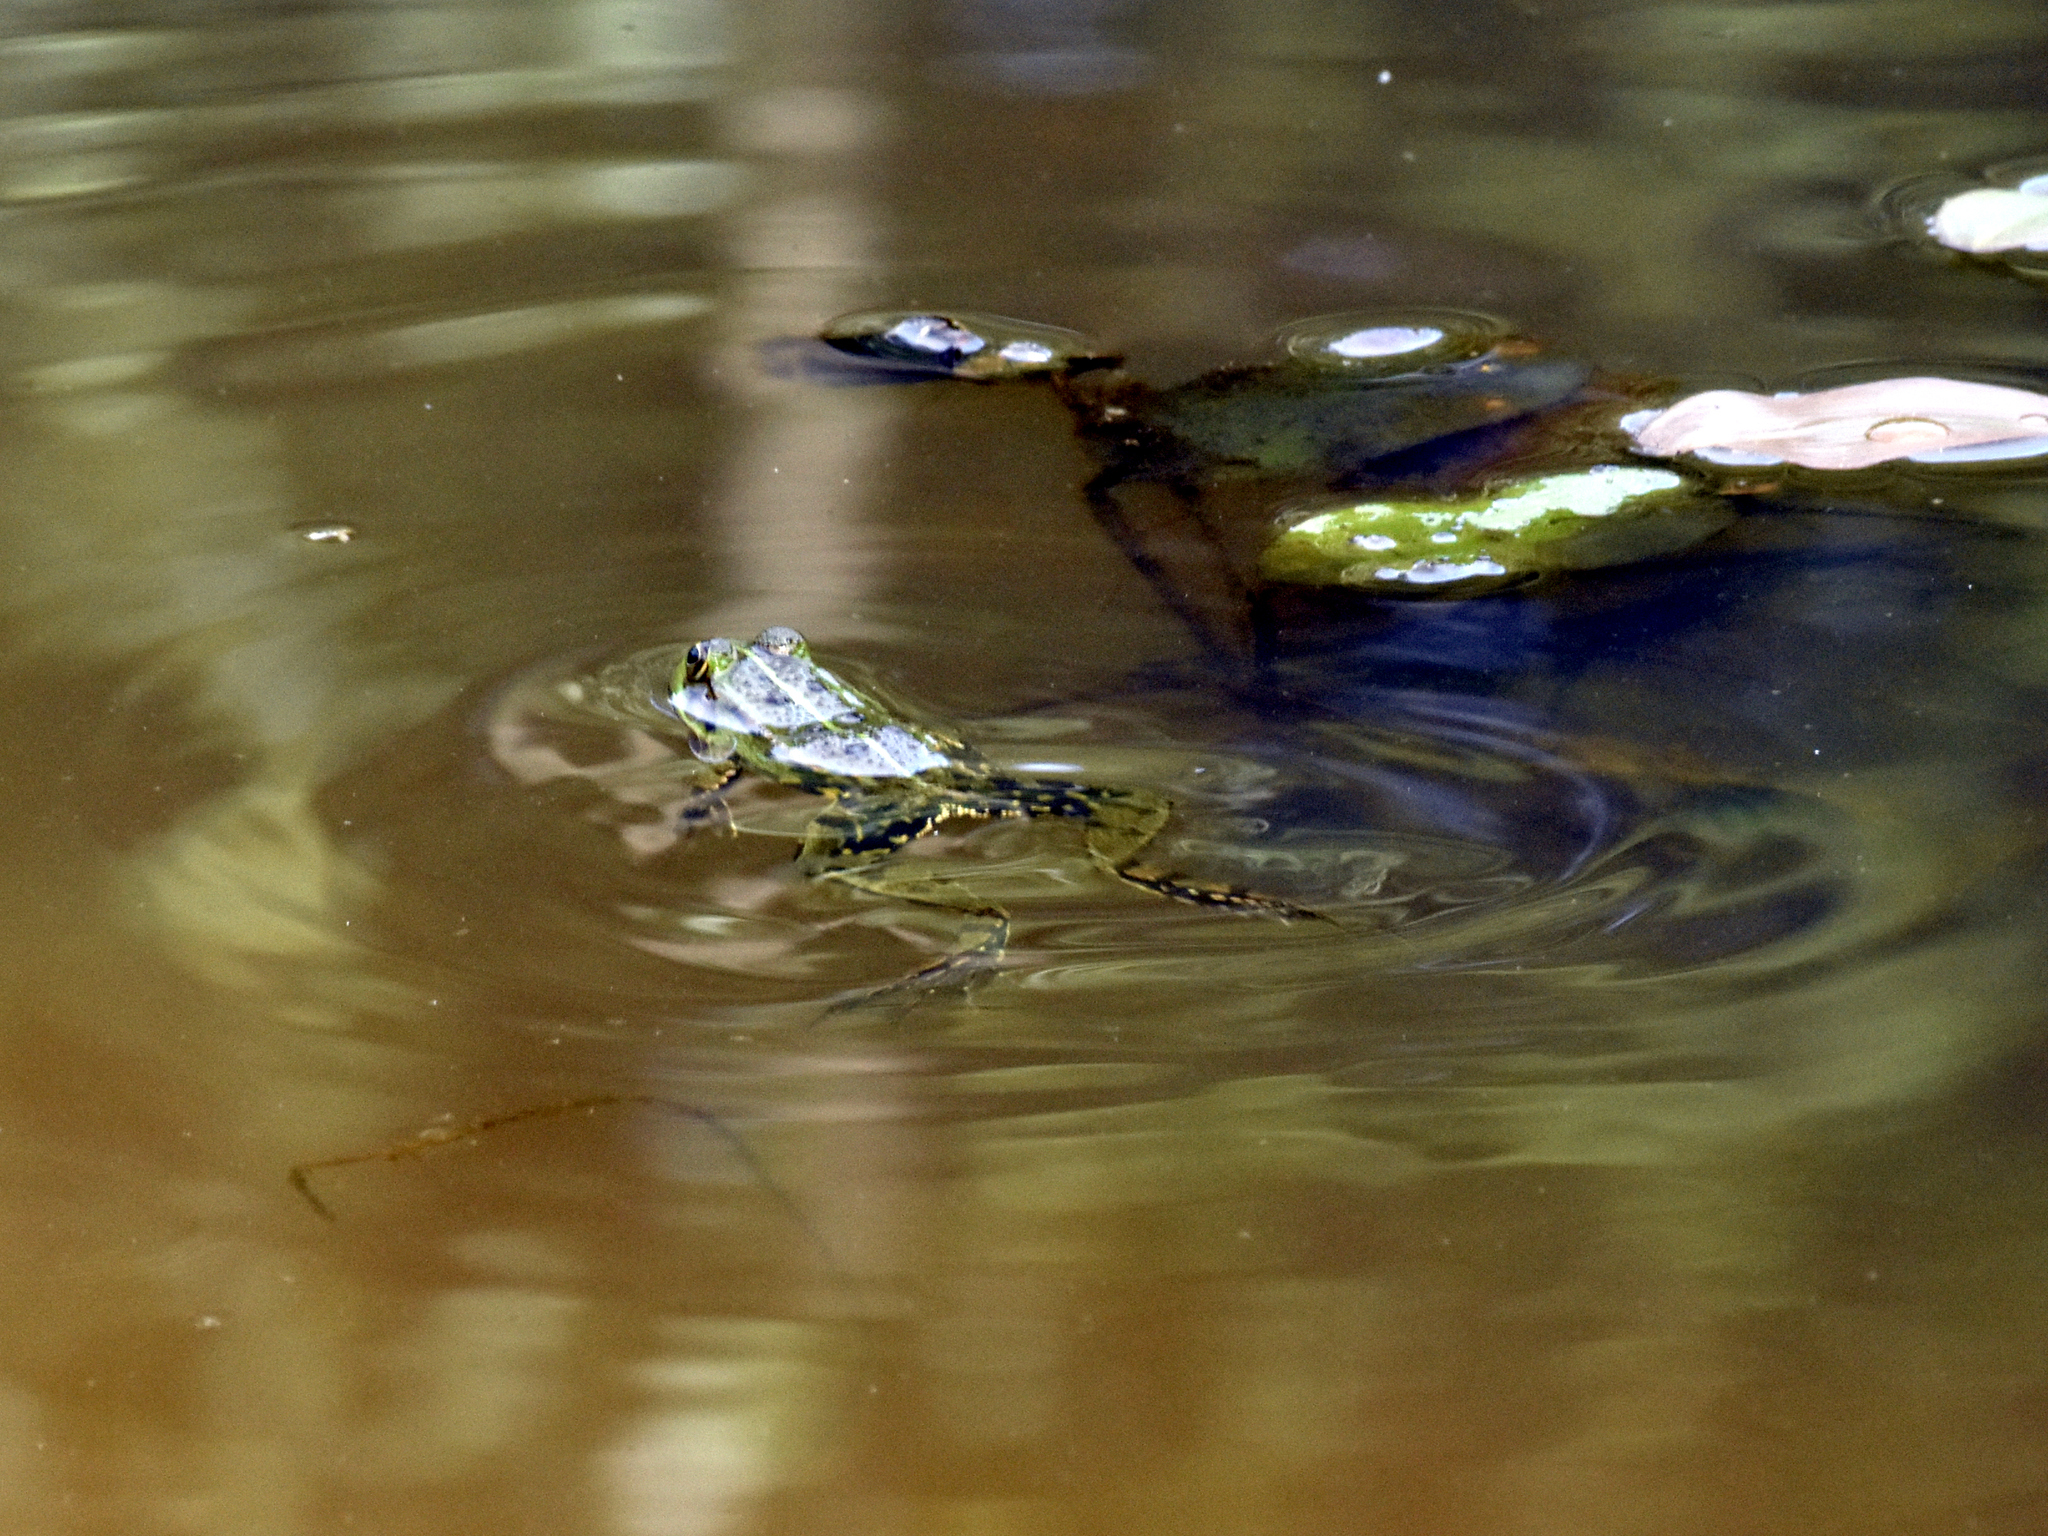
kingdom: Animalia
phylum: Chordata
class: Amphibia
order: Anura
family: Ranidae
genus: Pelophylax
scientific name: Pelophylax
